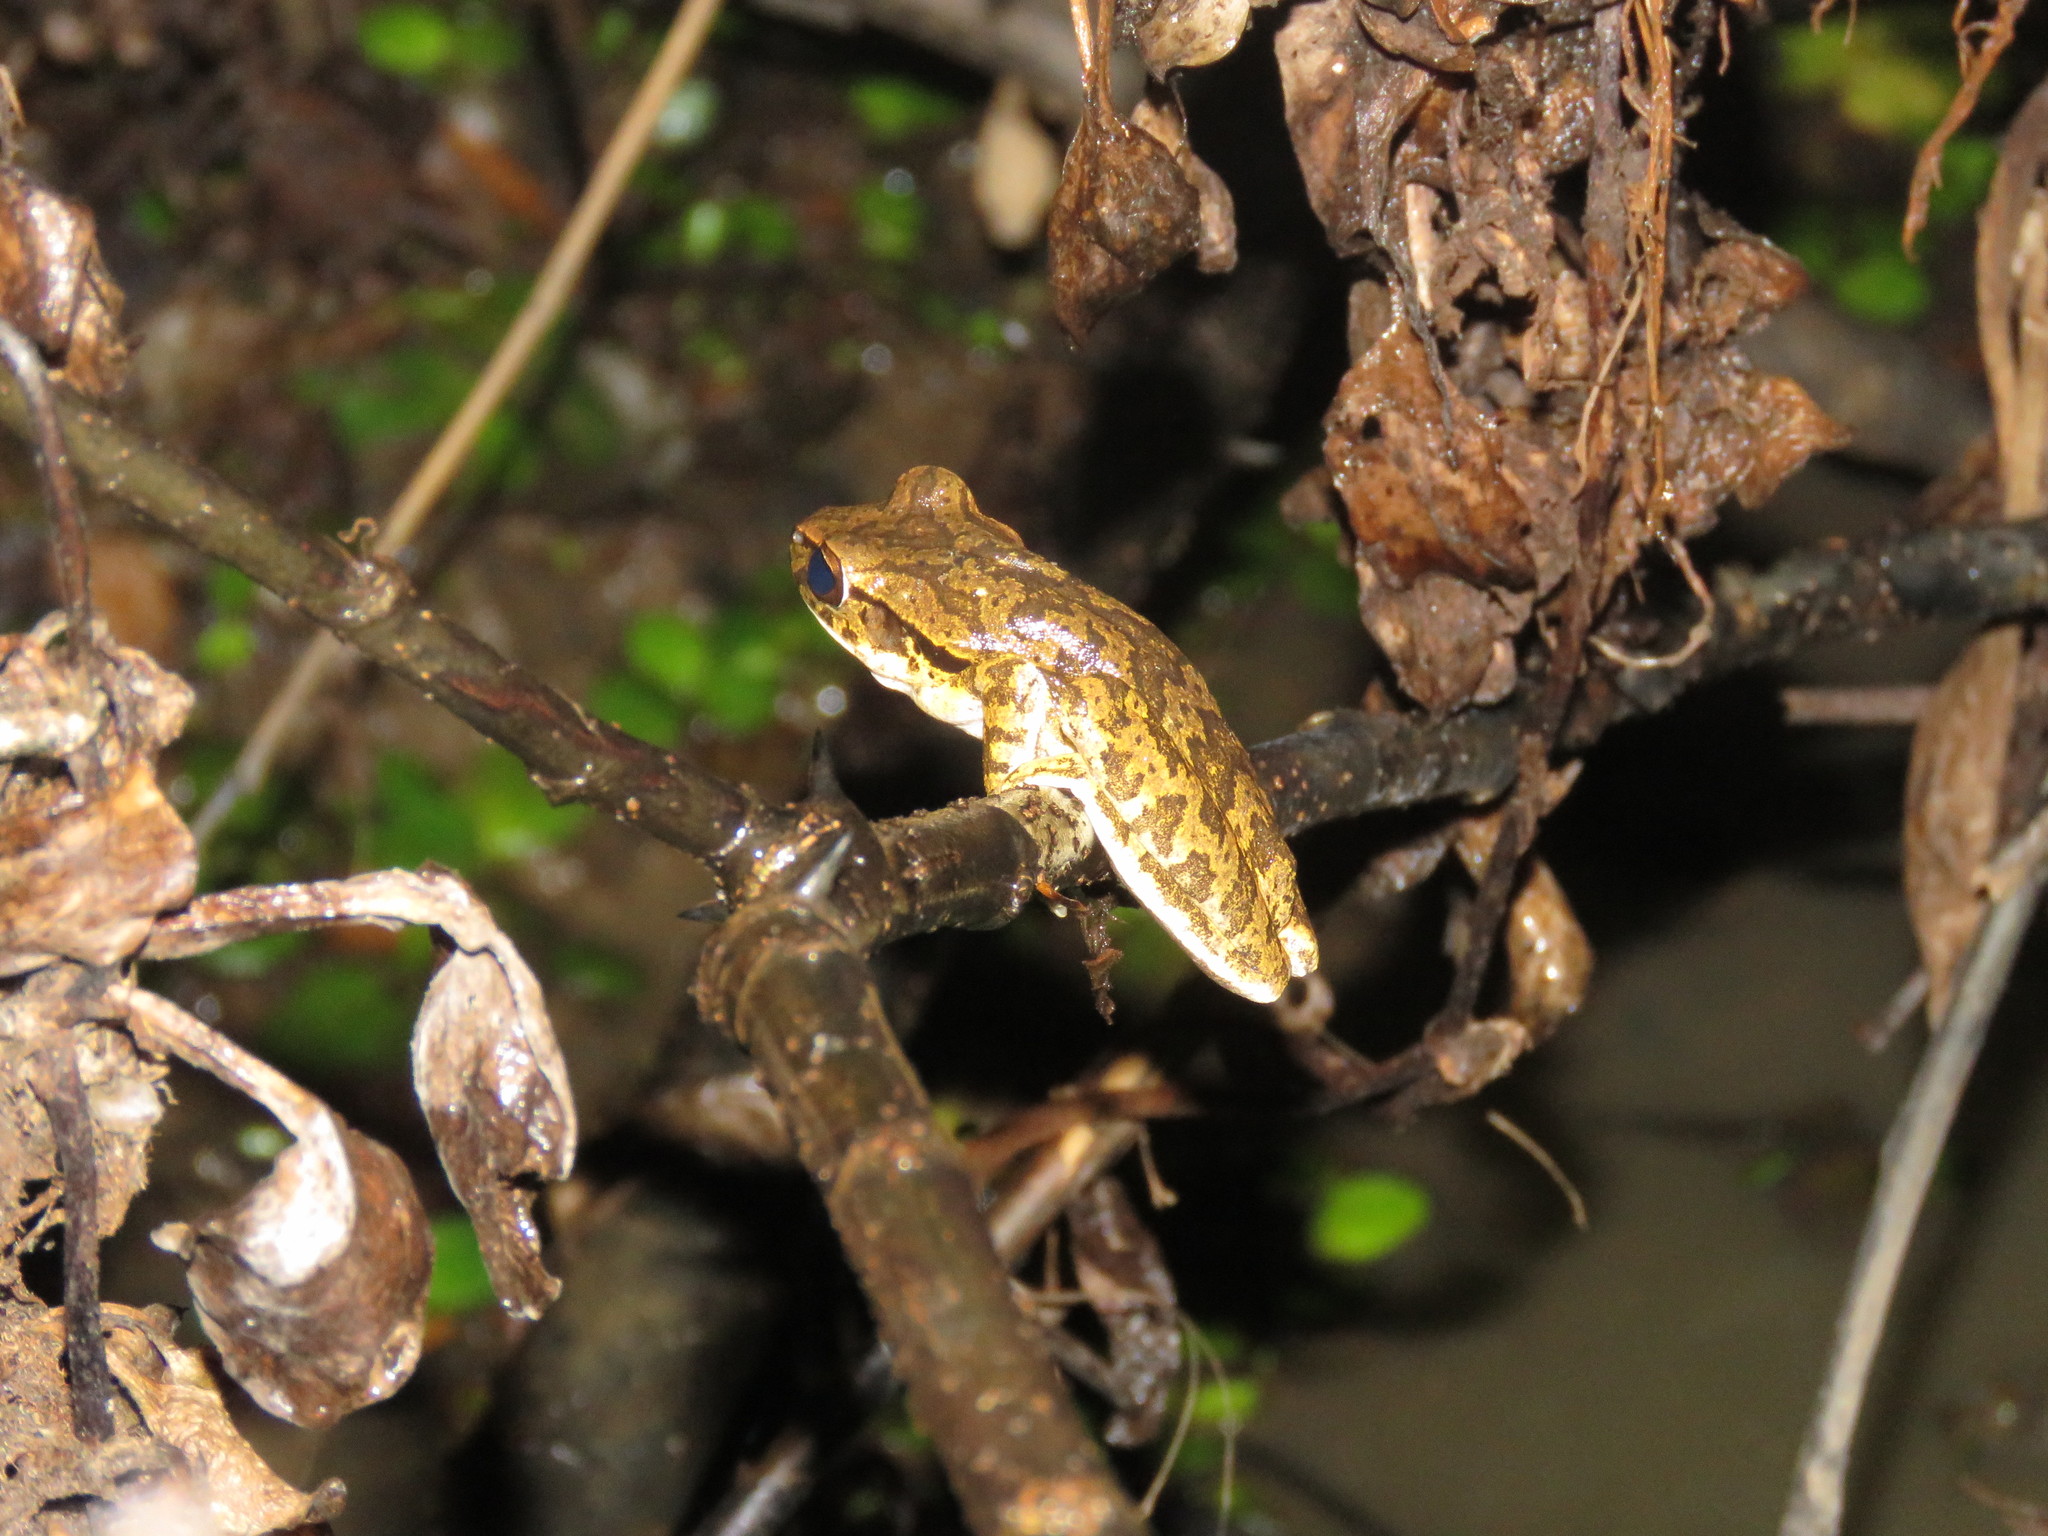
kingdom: Animalia
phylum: Chordata
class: Amphibia
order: Anura
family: Hylidae
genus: Boana
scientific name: Boana raniceps
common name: Chaco treefrog
